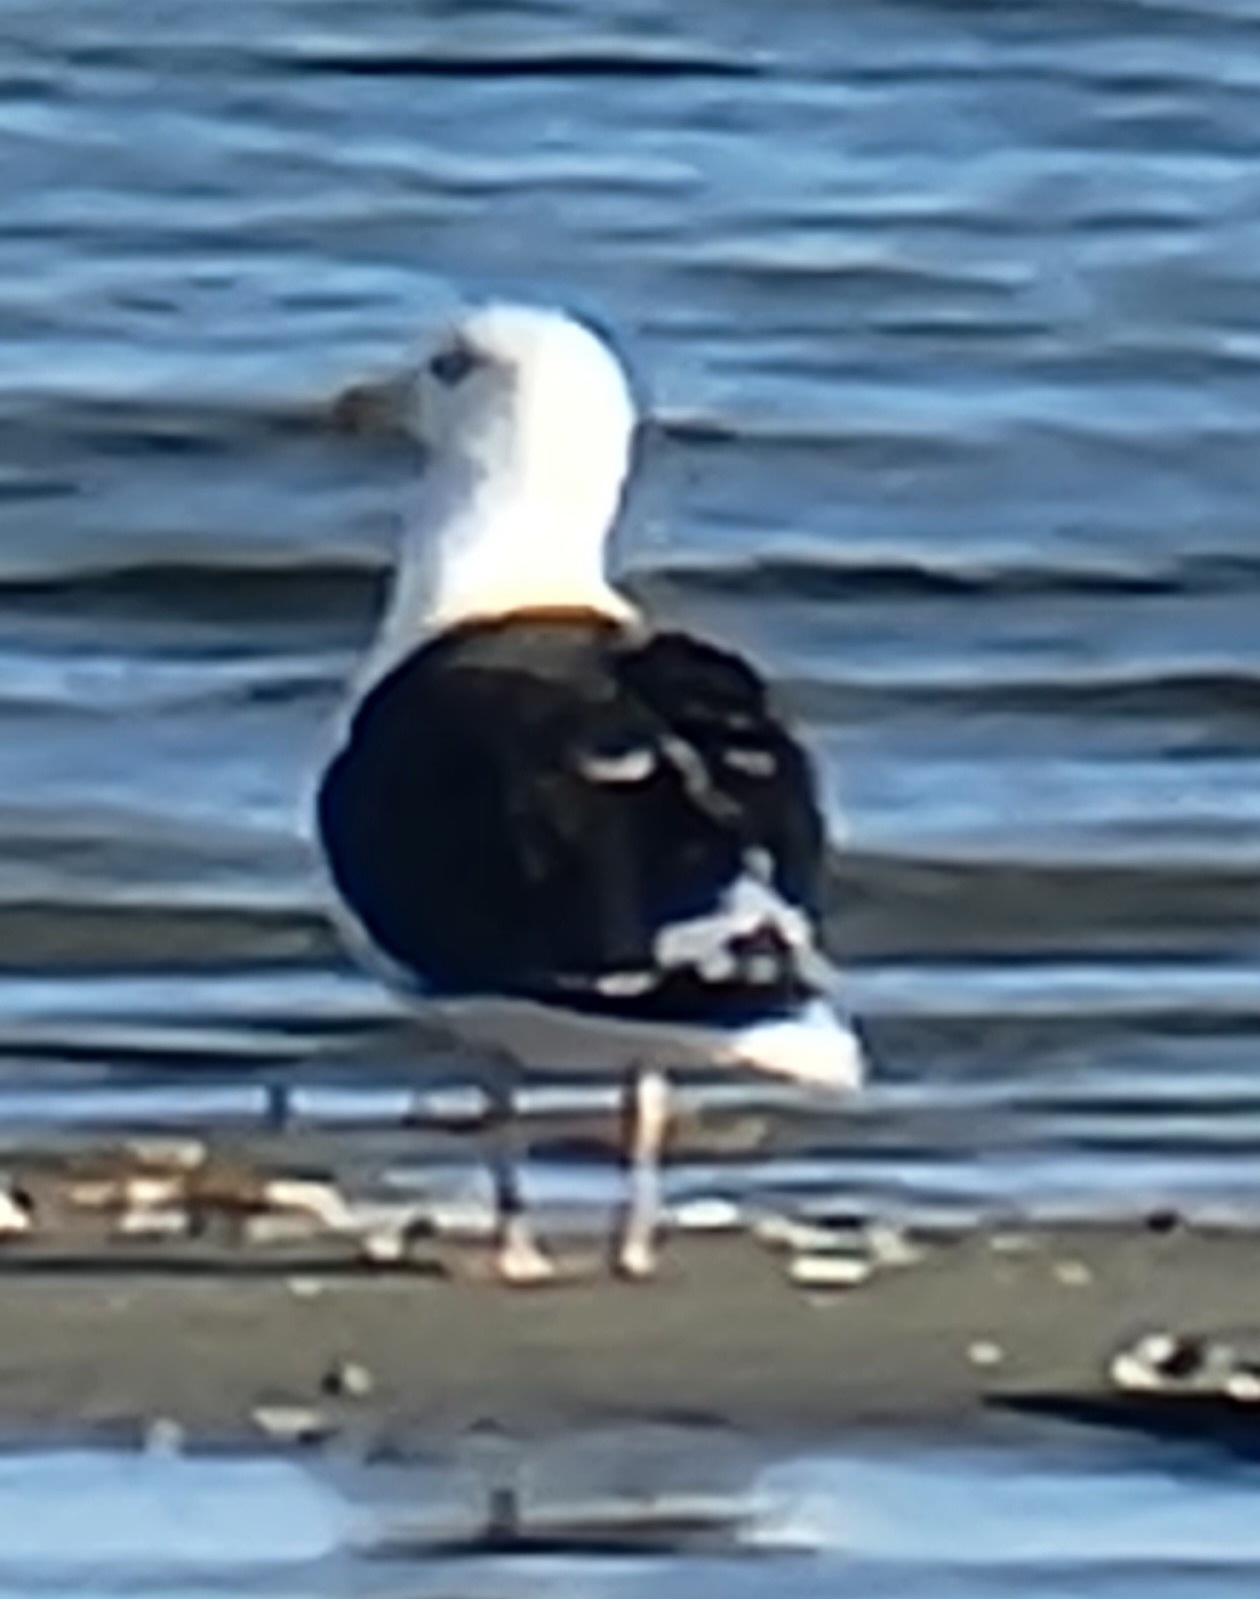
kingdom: Animalia
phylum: Chordata
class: Aves
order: Charadriiformes
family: Laridae
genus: Larus
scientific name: Larus marinus
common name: Great black-backed gull
